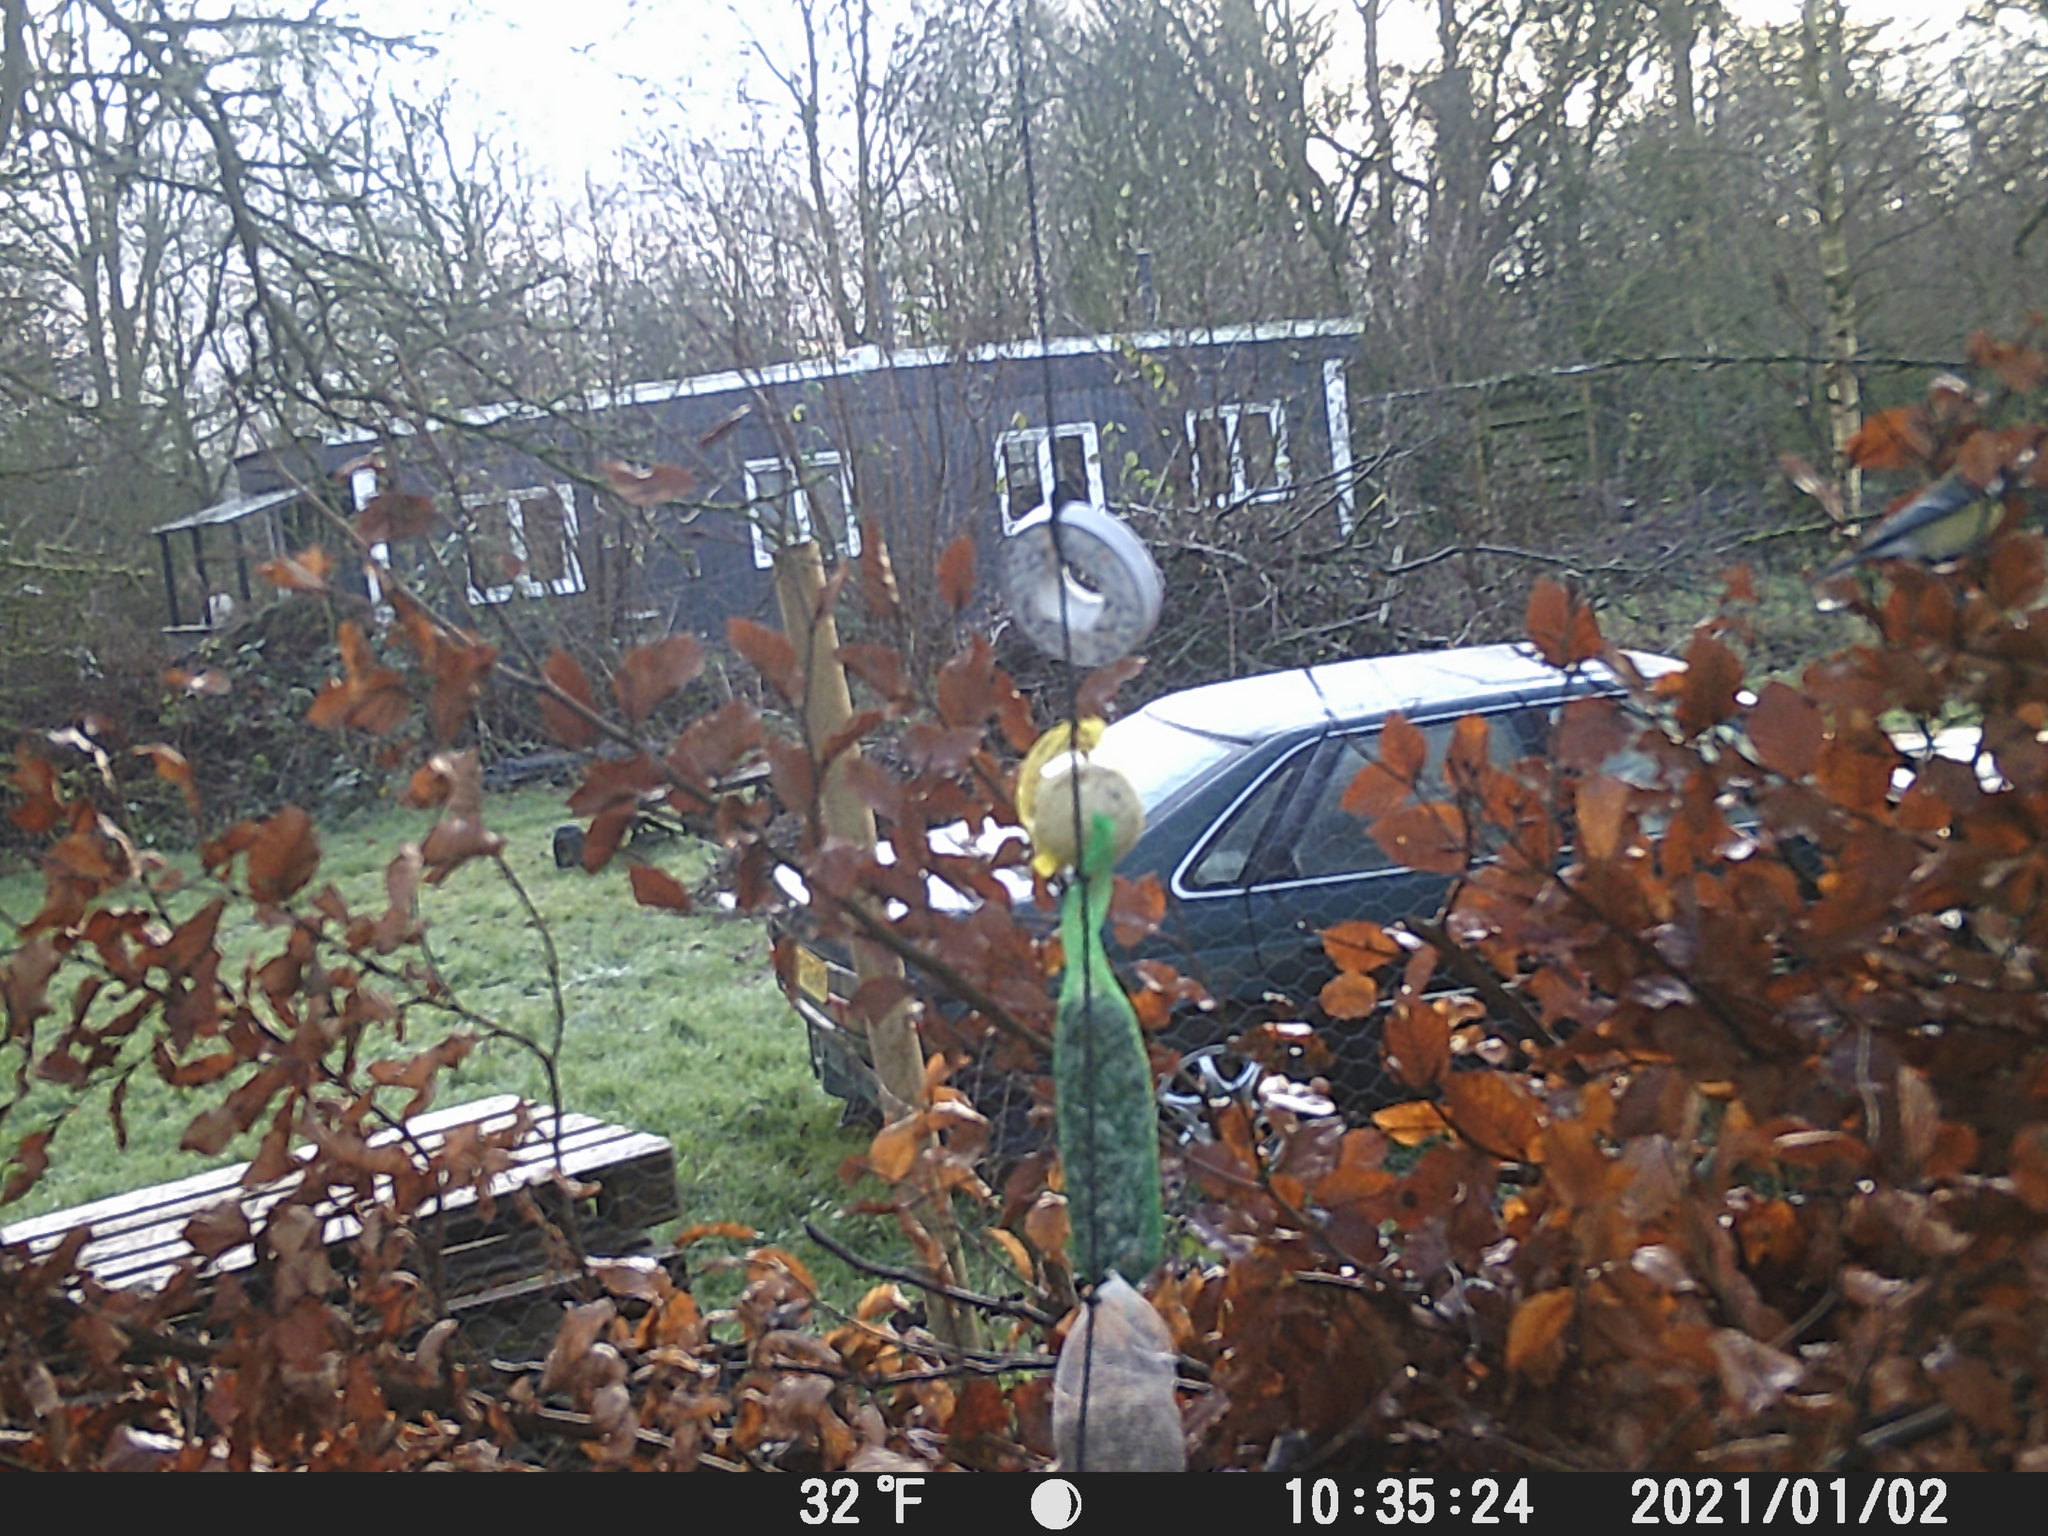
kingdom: Animalia
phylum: Chordata
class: Aves
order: Passeriformes
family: Paridae
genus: Parus
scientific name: Parus major
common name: Great tit
